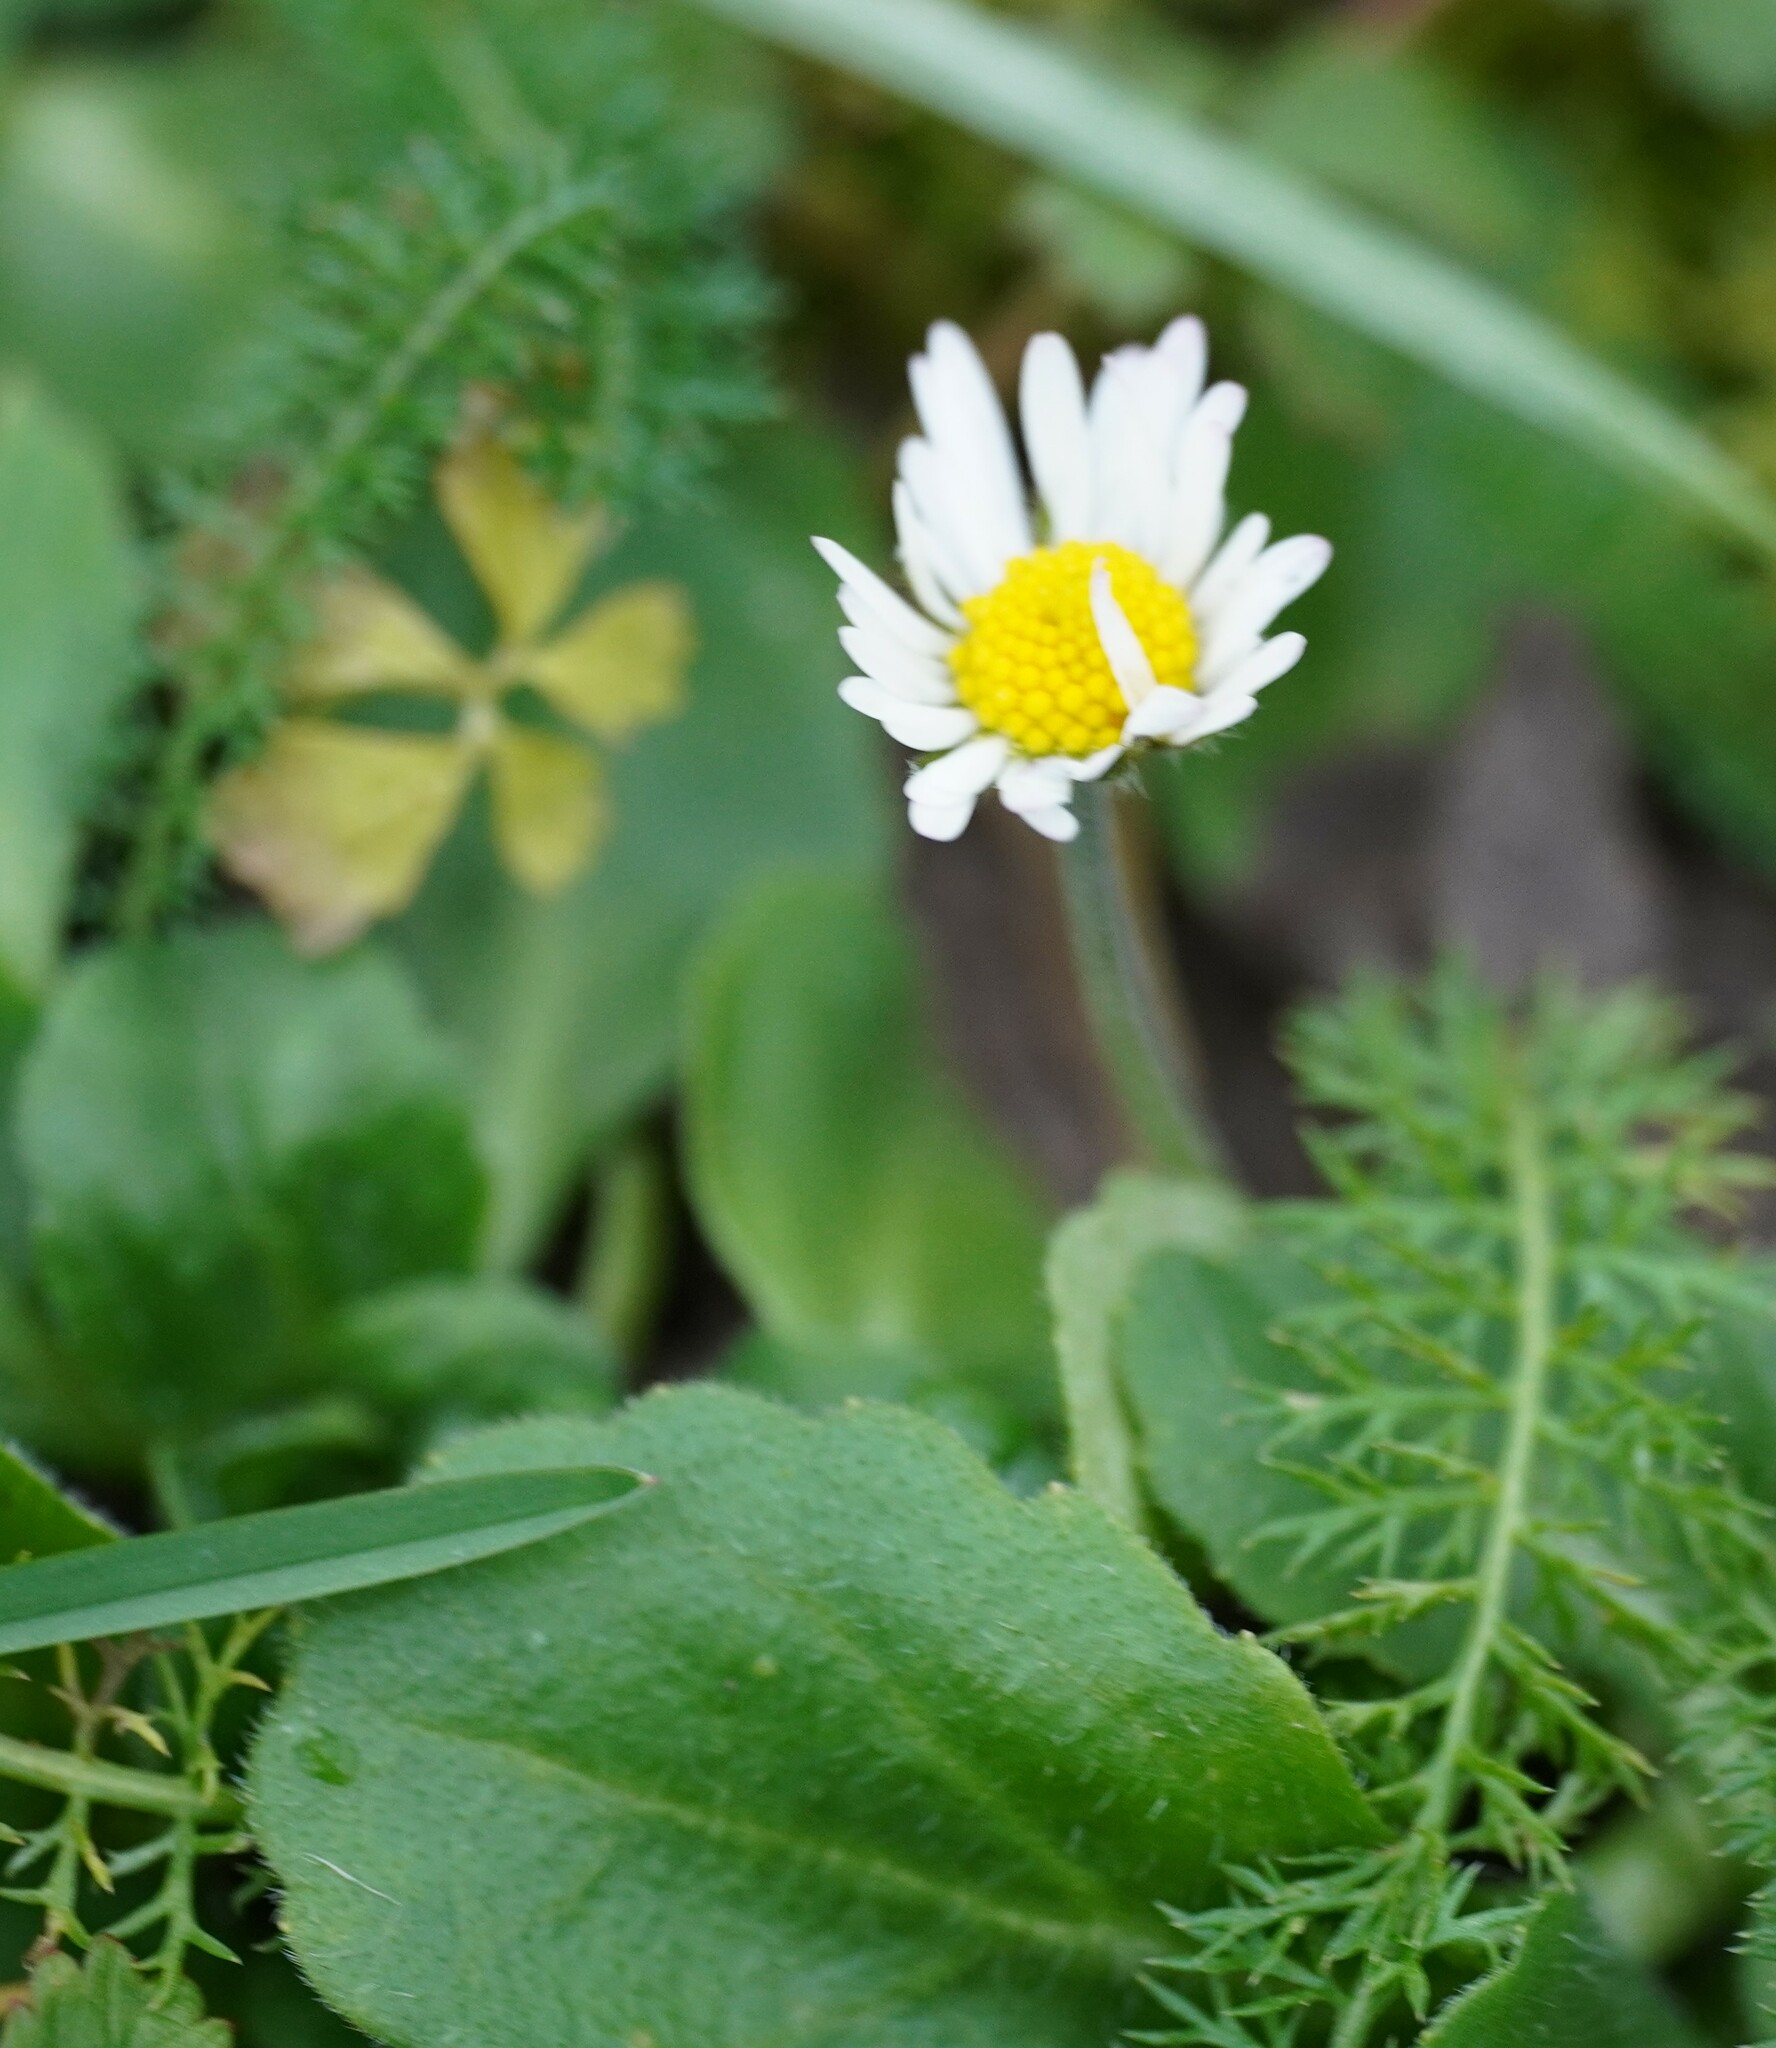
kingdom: Plantae
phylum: Tracheophyta
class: Magnoliopsida
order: Asterales
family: Asteraceae
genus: Bellis
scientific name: Bellis perennis
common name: Lawndaisy
